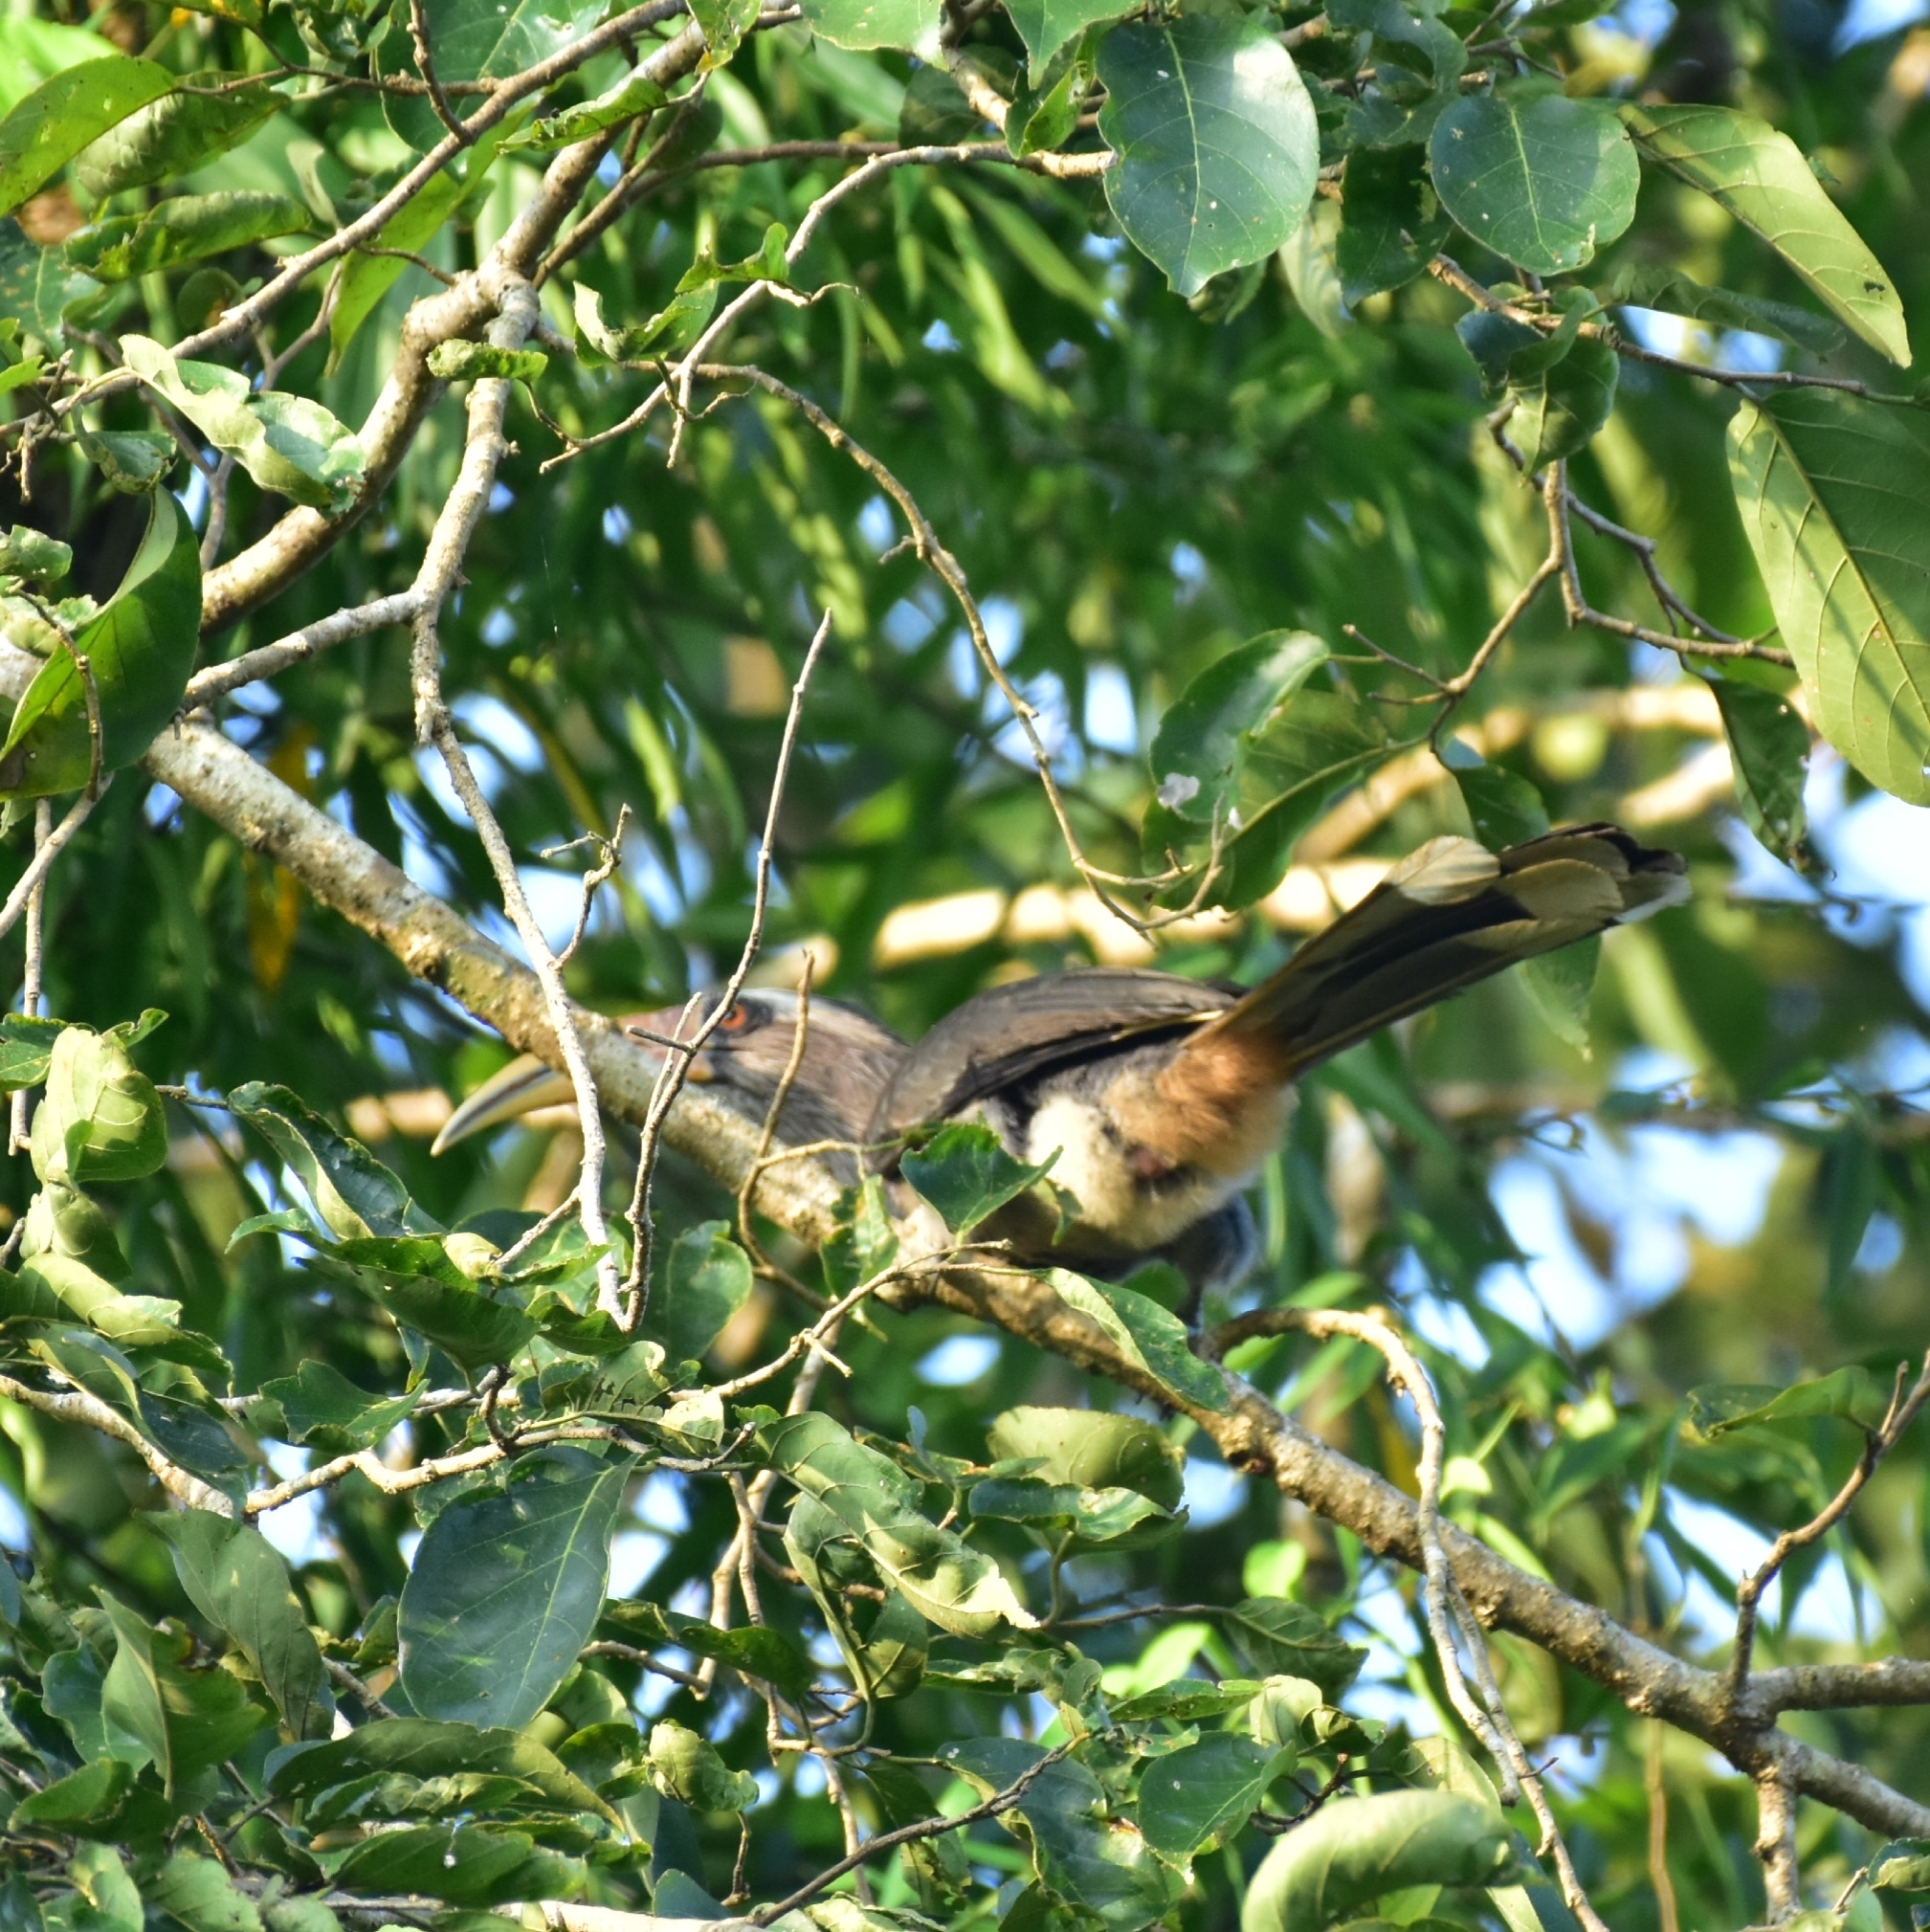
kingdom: Animalia
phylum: Chordata
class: Aves
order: Bucerotiformes
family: Bucerotidae
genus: Ocyceros
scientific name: Ocyceros griseus
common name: Malabar grey hornbill
